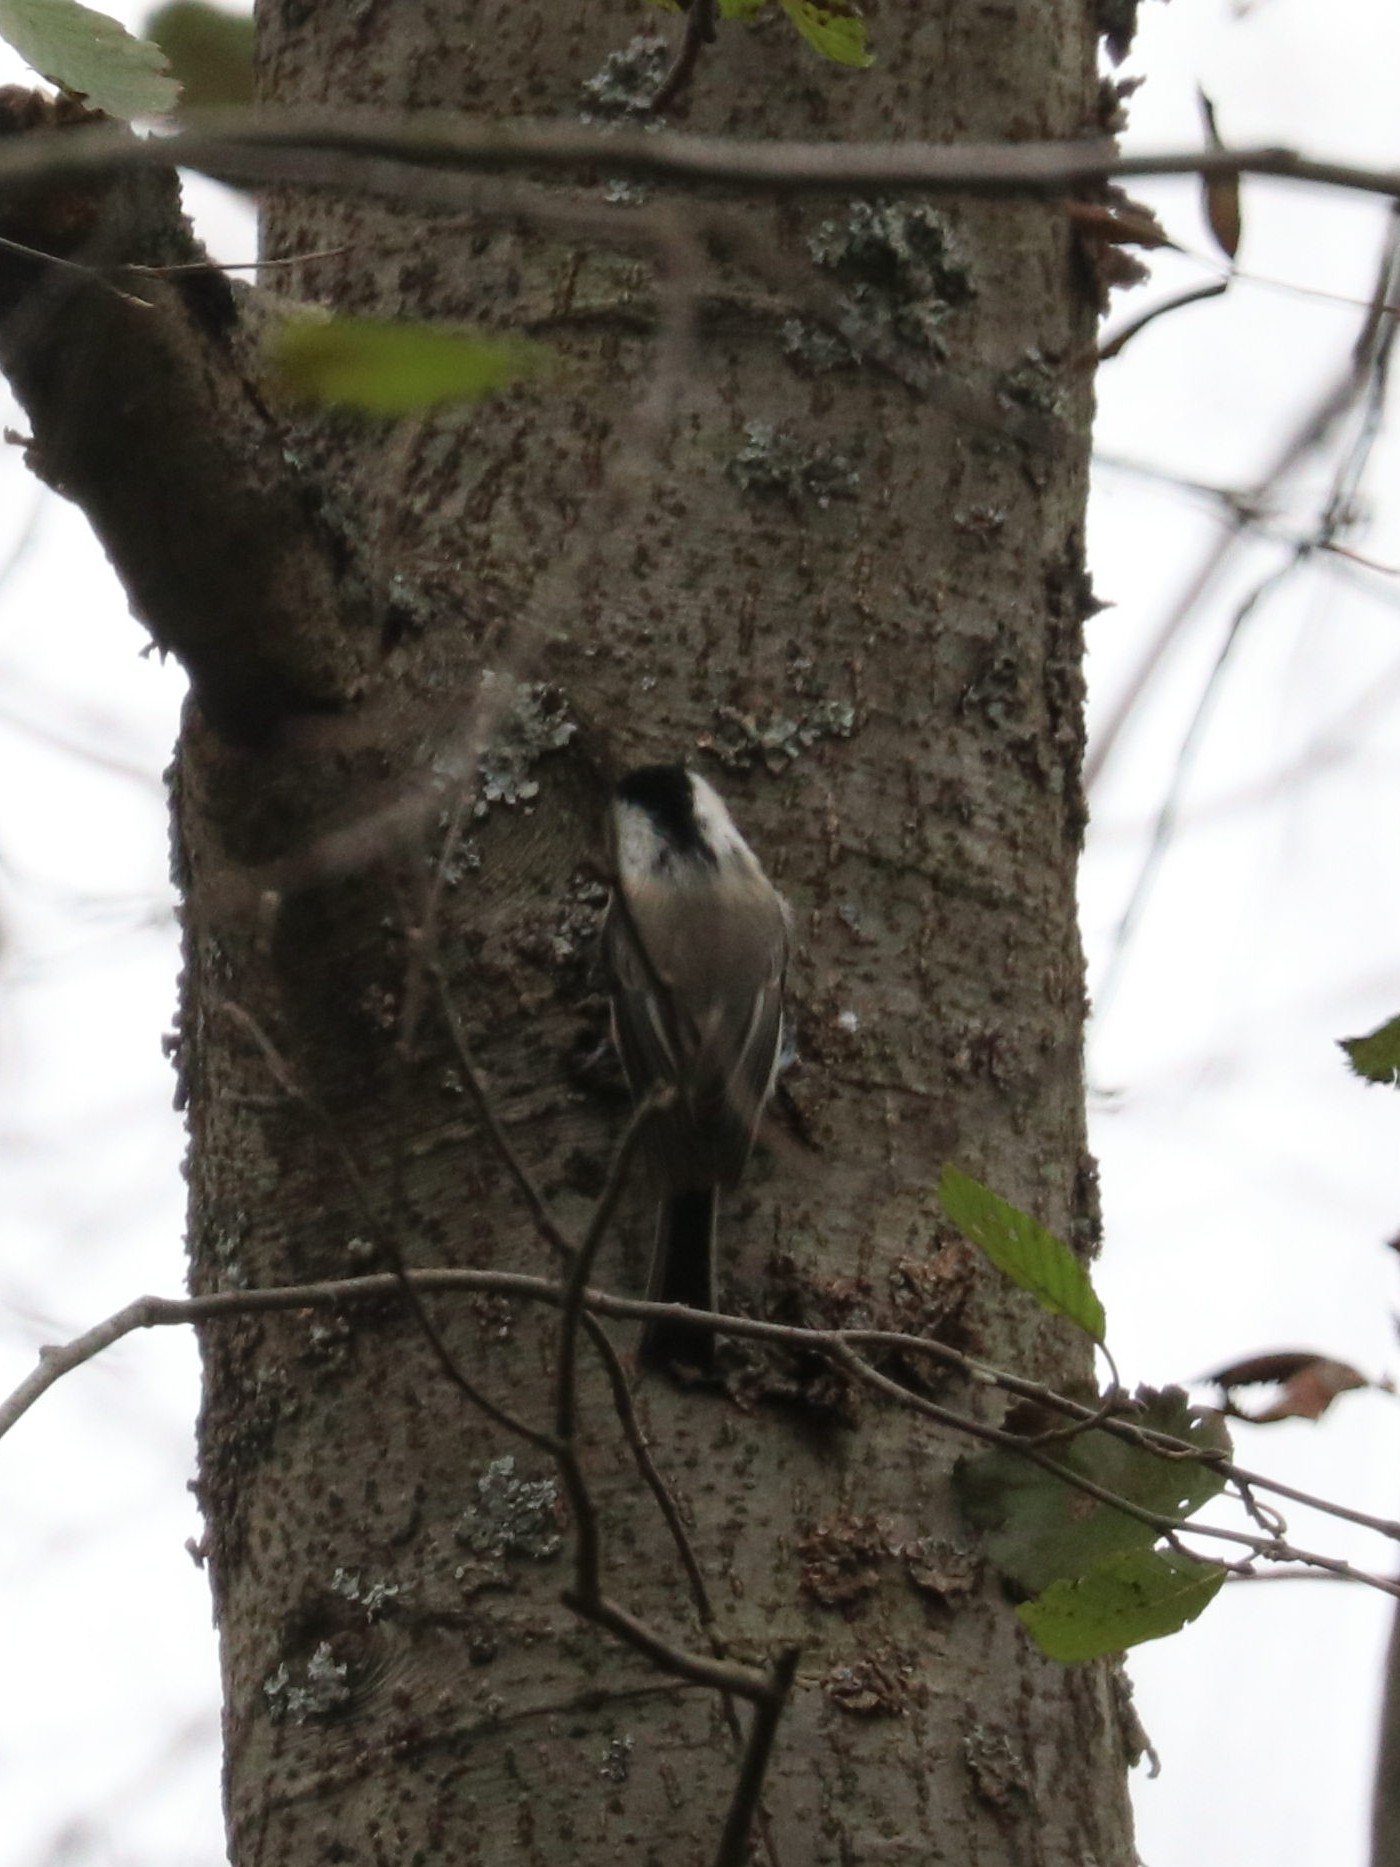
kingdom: Animalia
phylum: Chordata
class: Aves
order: Passeriformes
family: Paridae
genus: Poecile
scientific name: Poecile montanus
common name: Willow tit
